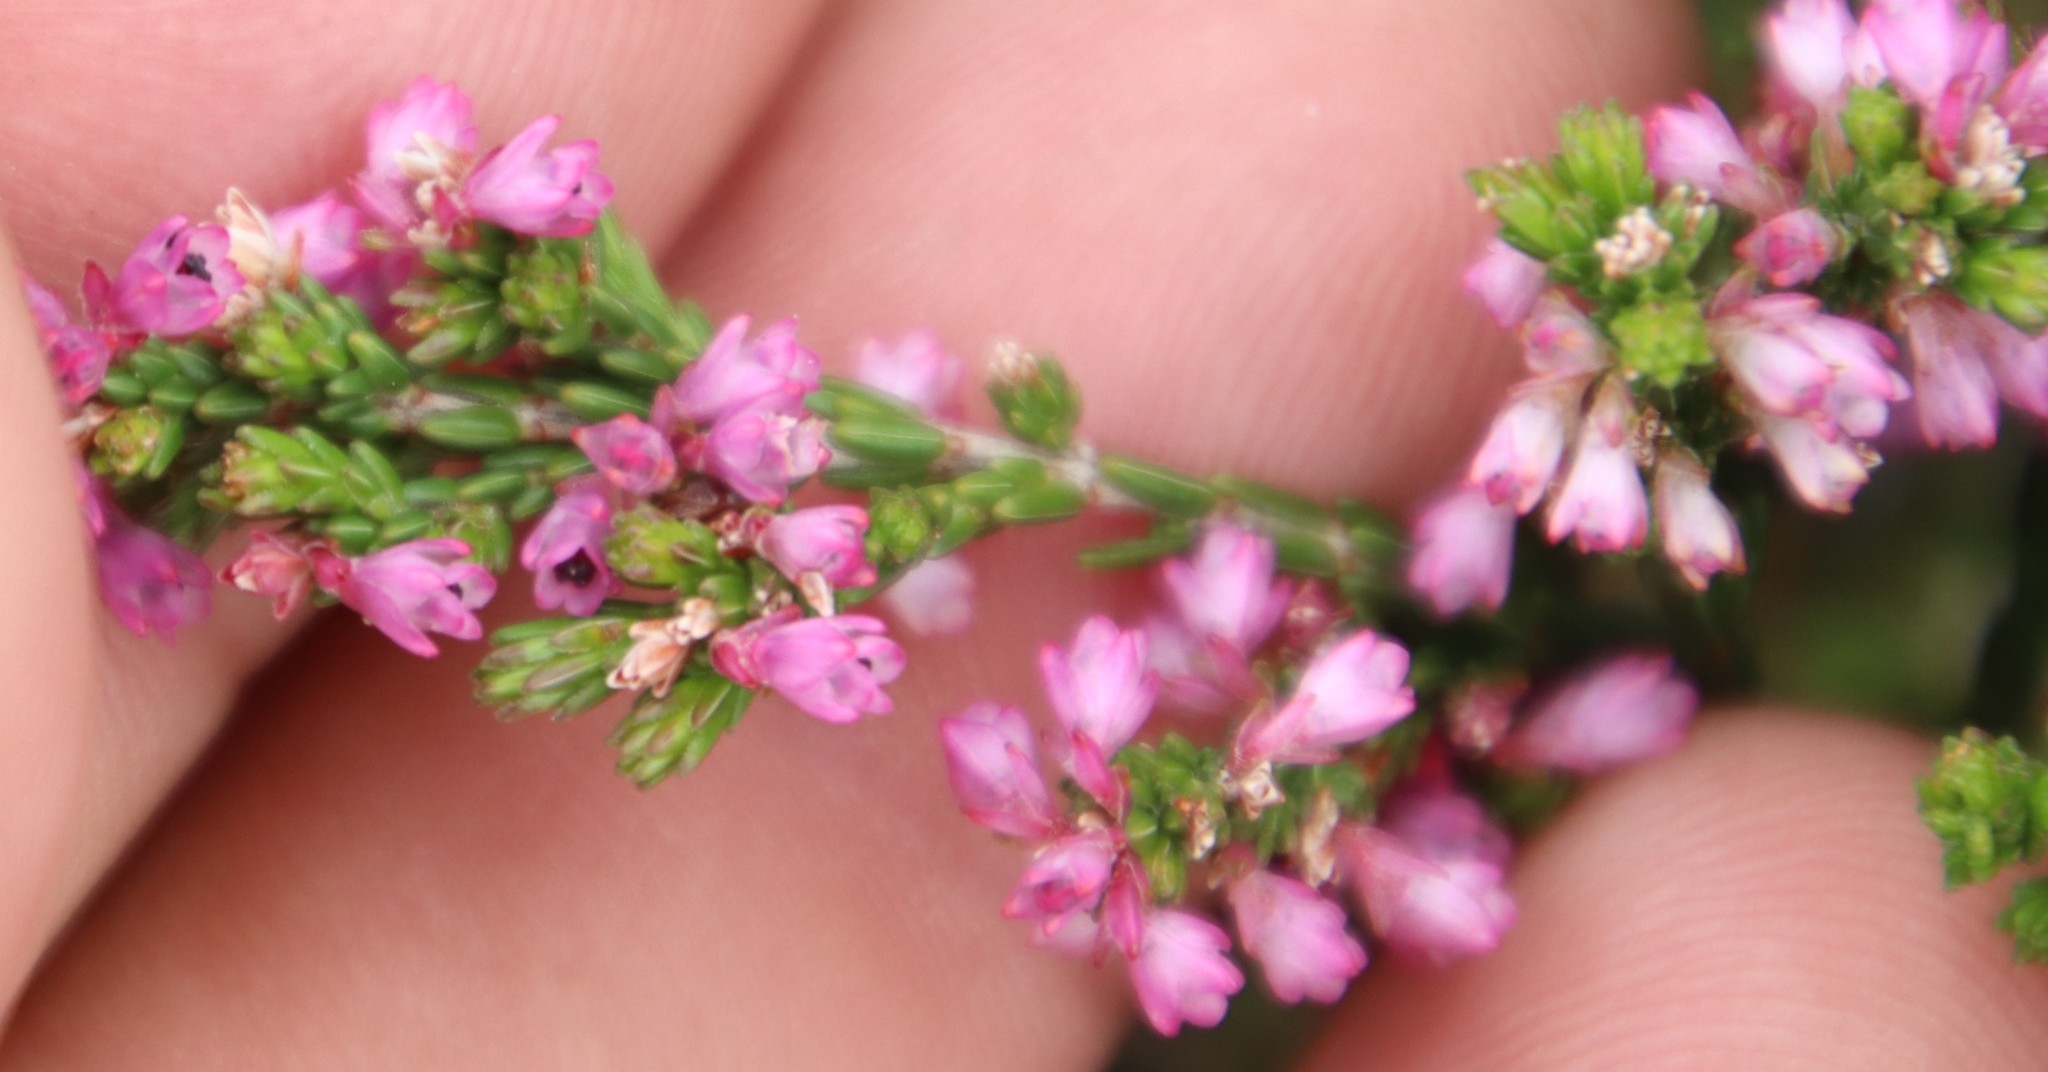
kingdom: Plantae
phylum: Tracheophyta
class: Magnoliopsida
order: Ericales
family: Ericaceae
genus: Erica
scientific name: Erica gnaphaloides
